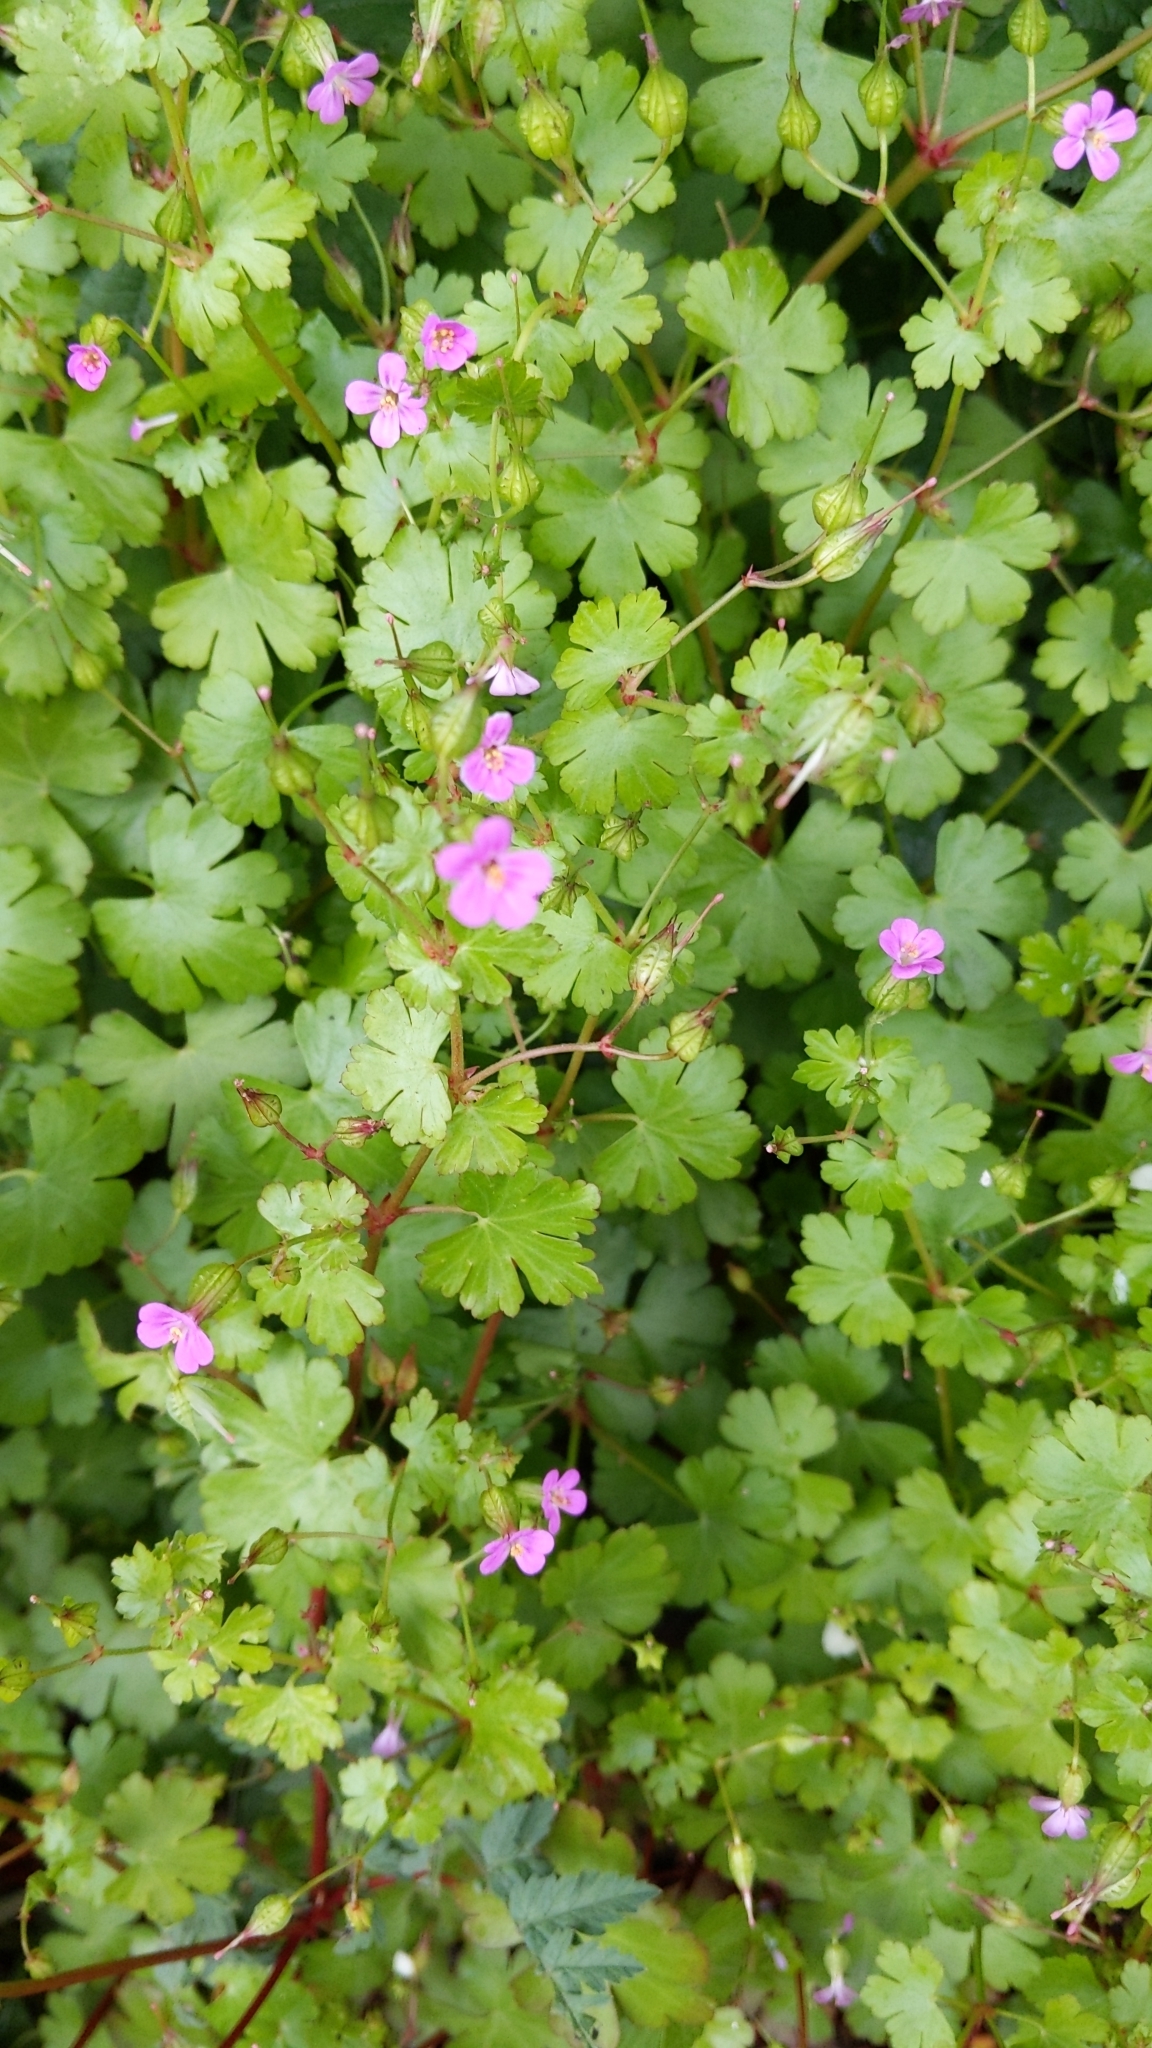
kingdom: Plantae
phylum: Tracheophyta
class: Magnoliopsida
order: Geraniales
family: Geraniaceae
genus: Geranium
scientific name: Geranium lucidum
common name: Shining crane's-bill
